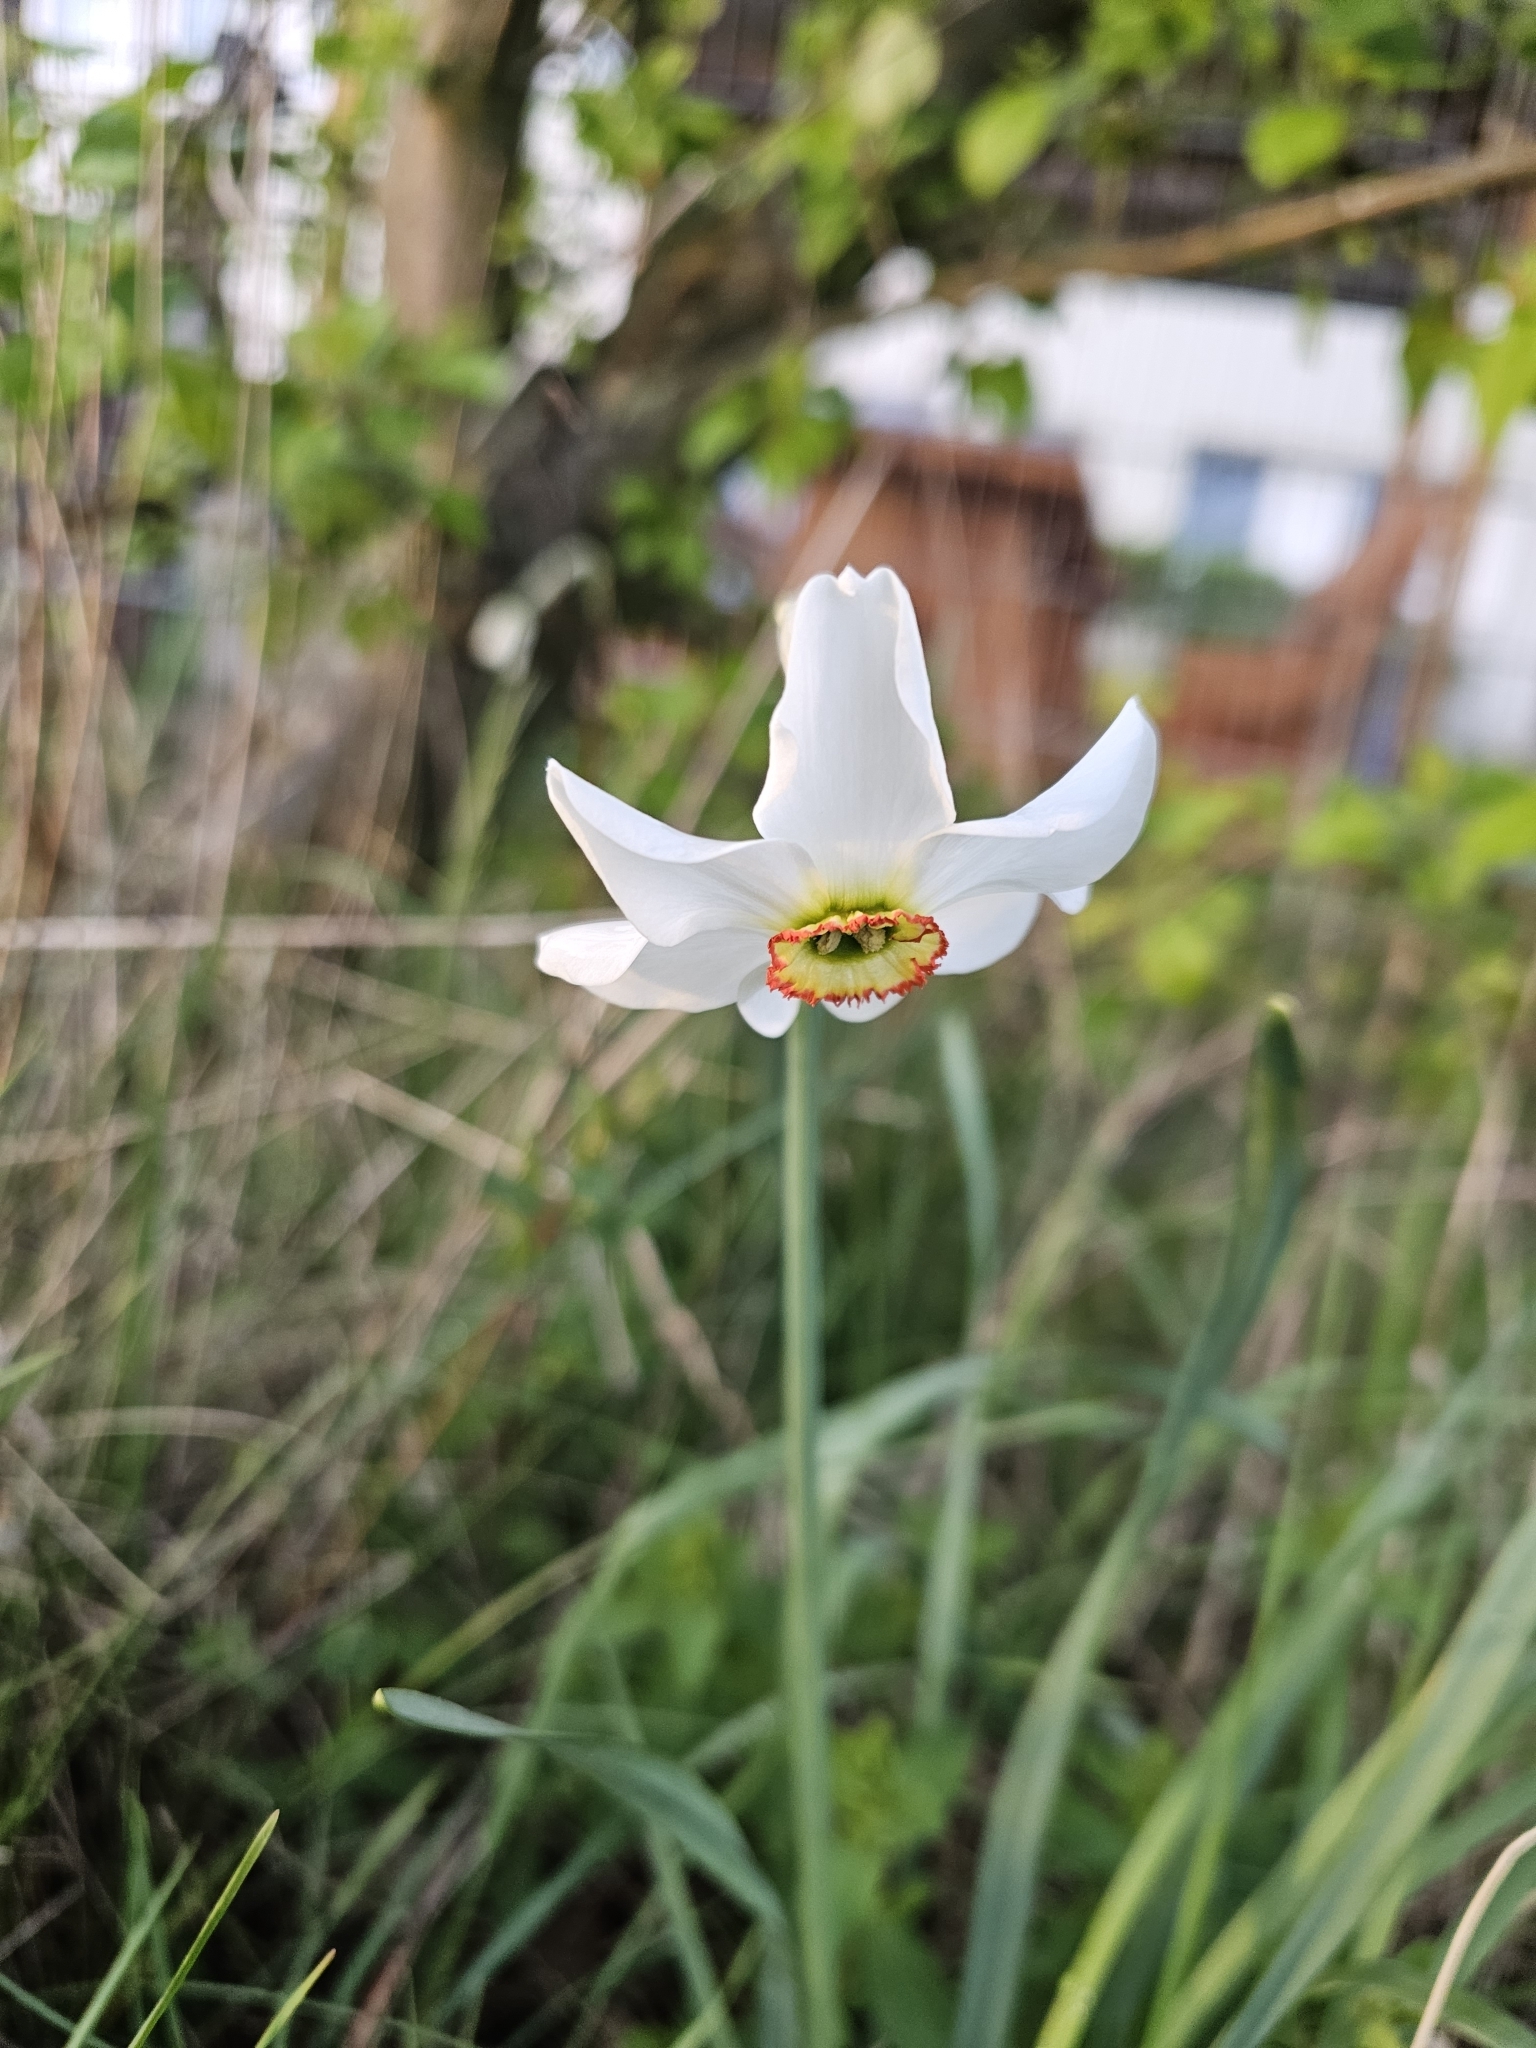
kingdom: Plantae
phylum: Tracheophyta
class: Liliopsida
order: Asparagales
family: Amaryllidaceae
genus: Narcissus
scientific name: Narcissus poeticus
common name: Pheasant's-eye daffodil
